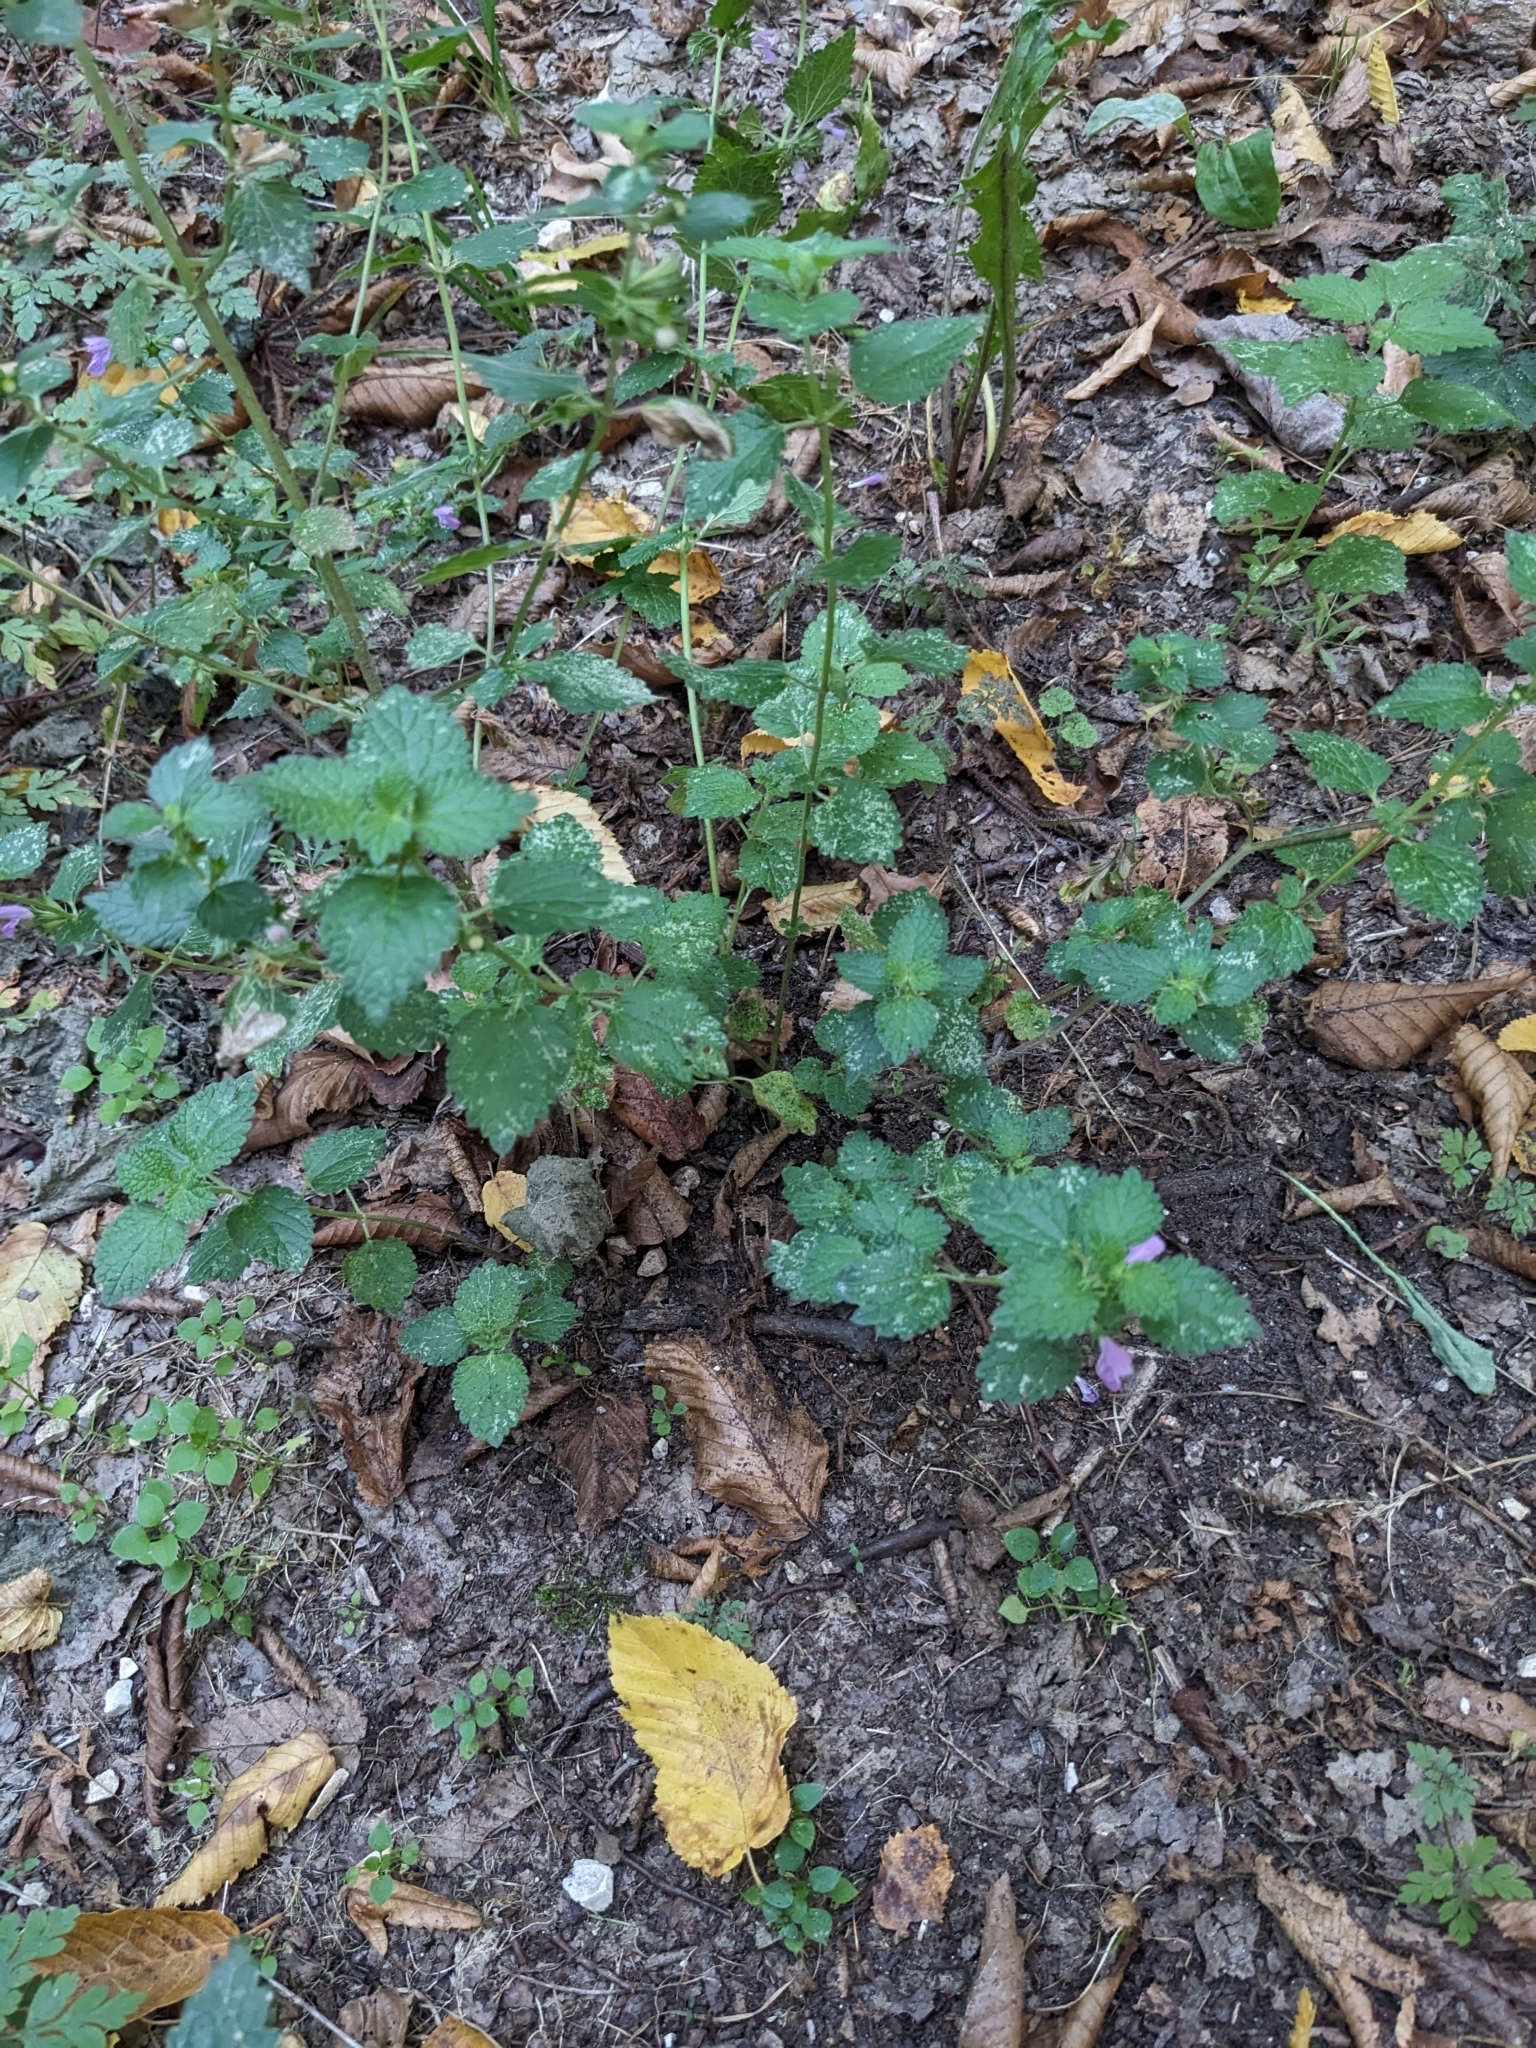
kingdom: Plantae
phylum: Tracheophyta
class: Magnoliopsida
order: Lamiales
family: Lamiaceae
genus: Ballota
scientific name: Ballota nigra
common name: Black horehound
